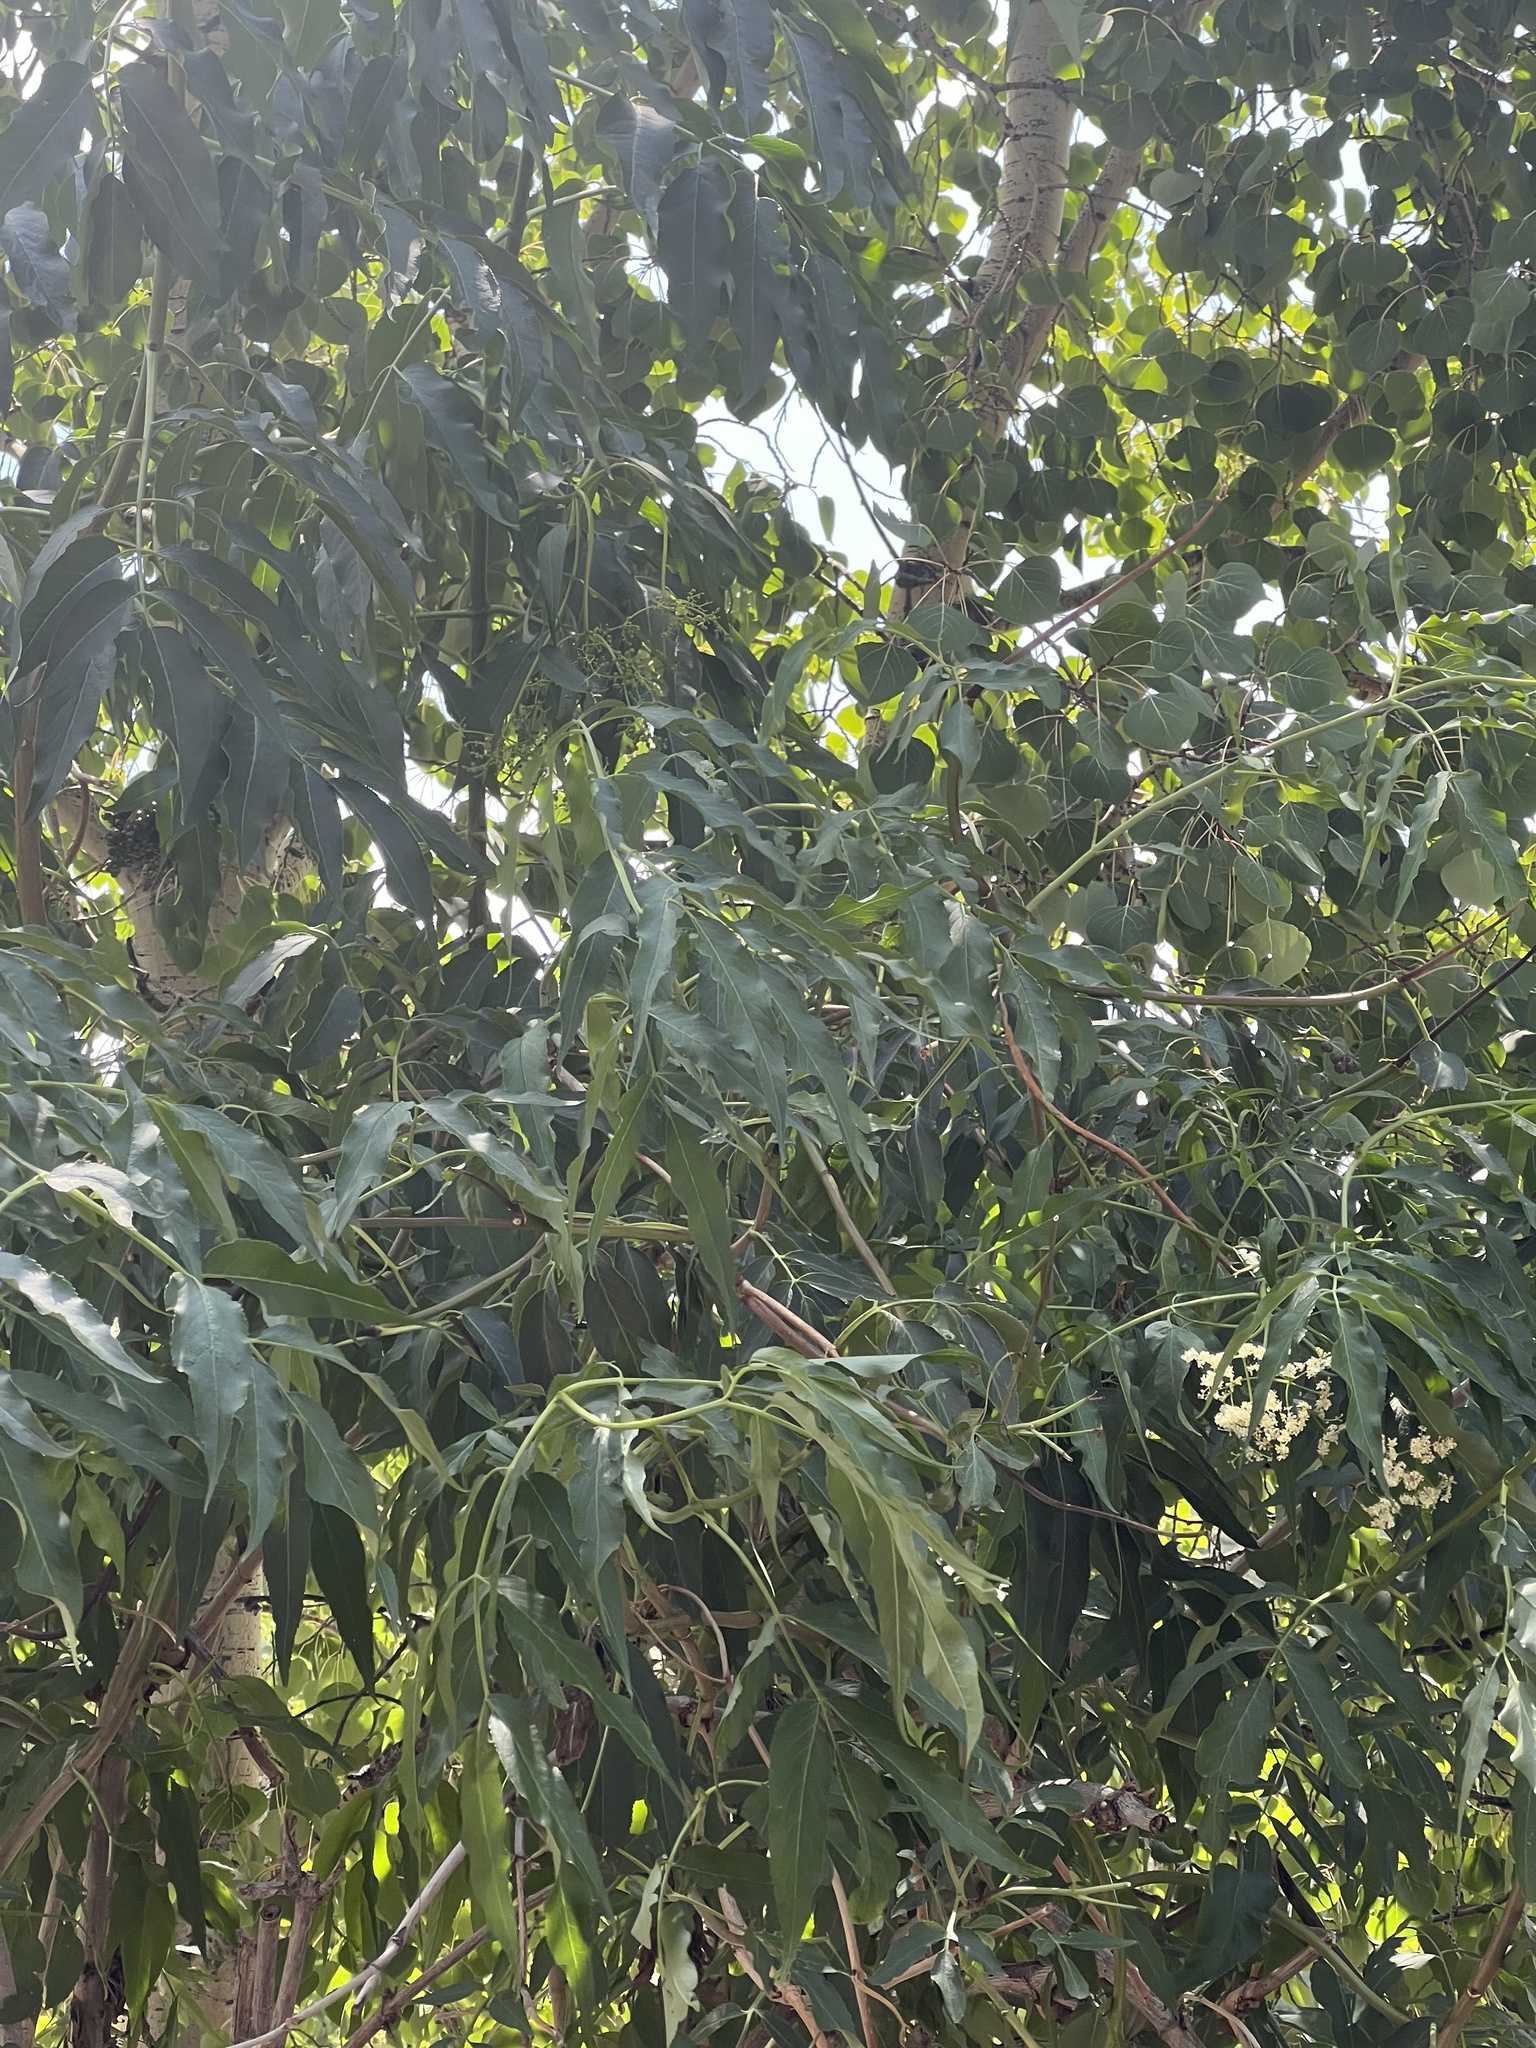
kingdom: Plantae
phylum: Tracheophyta
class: Magnoliopsida
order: Dipsacales
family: Viburnaceae
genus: Sambucus
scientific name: Sambucus cerulea
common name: Blue elder
